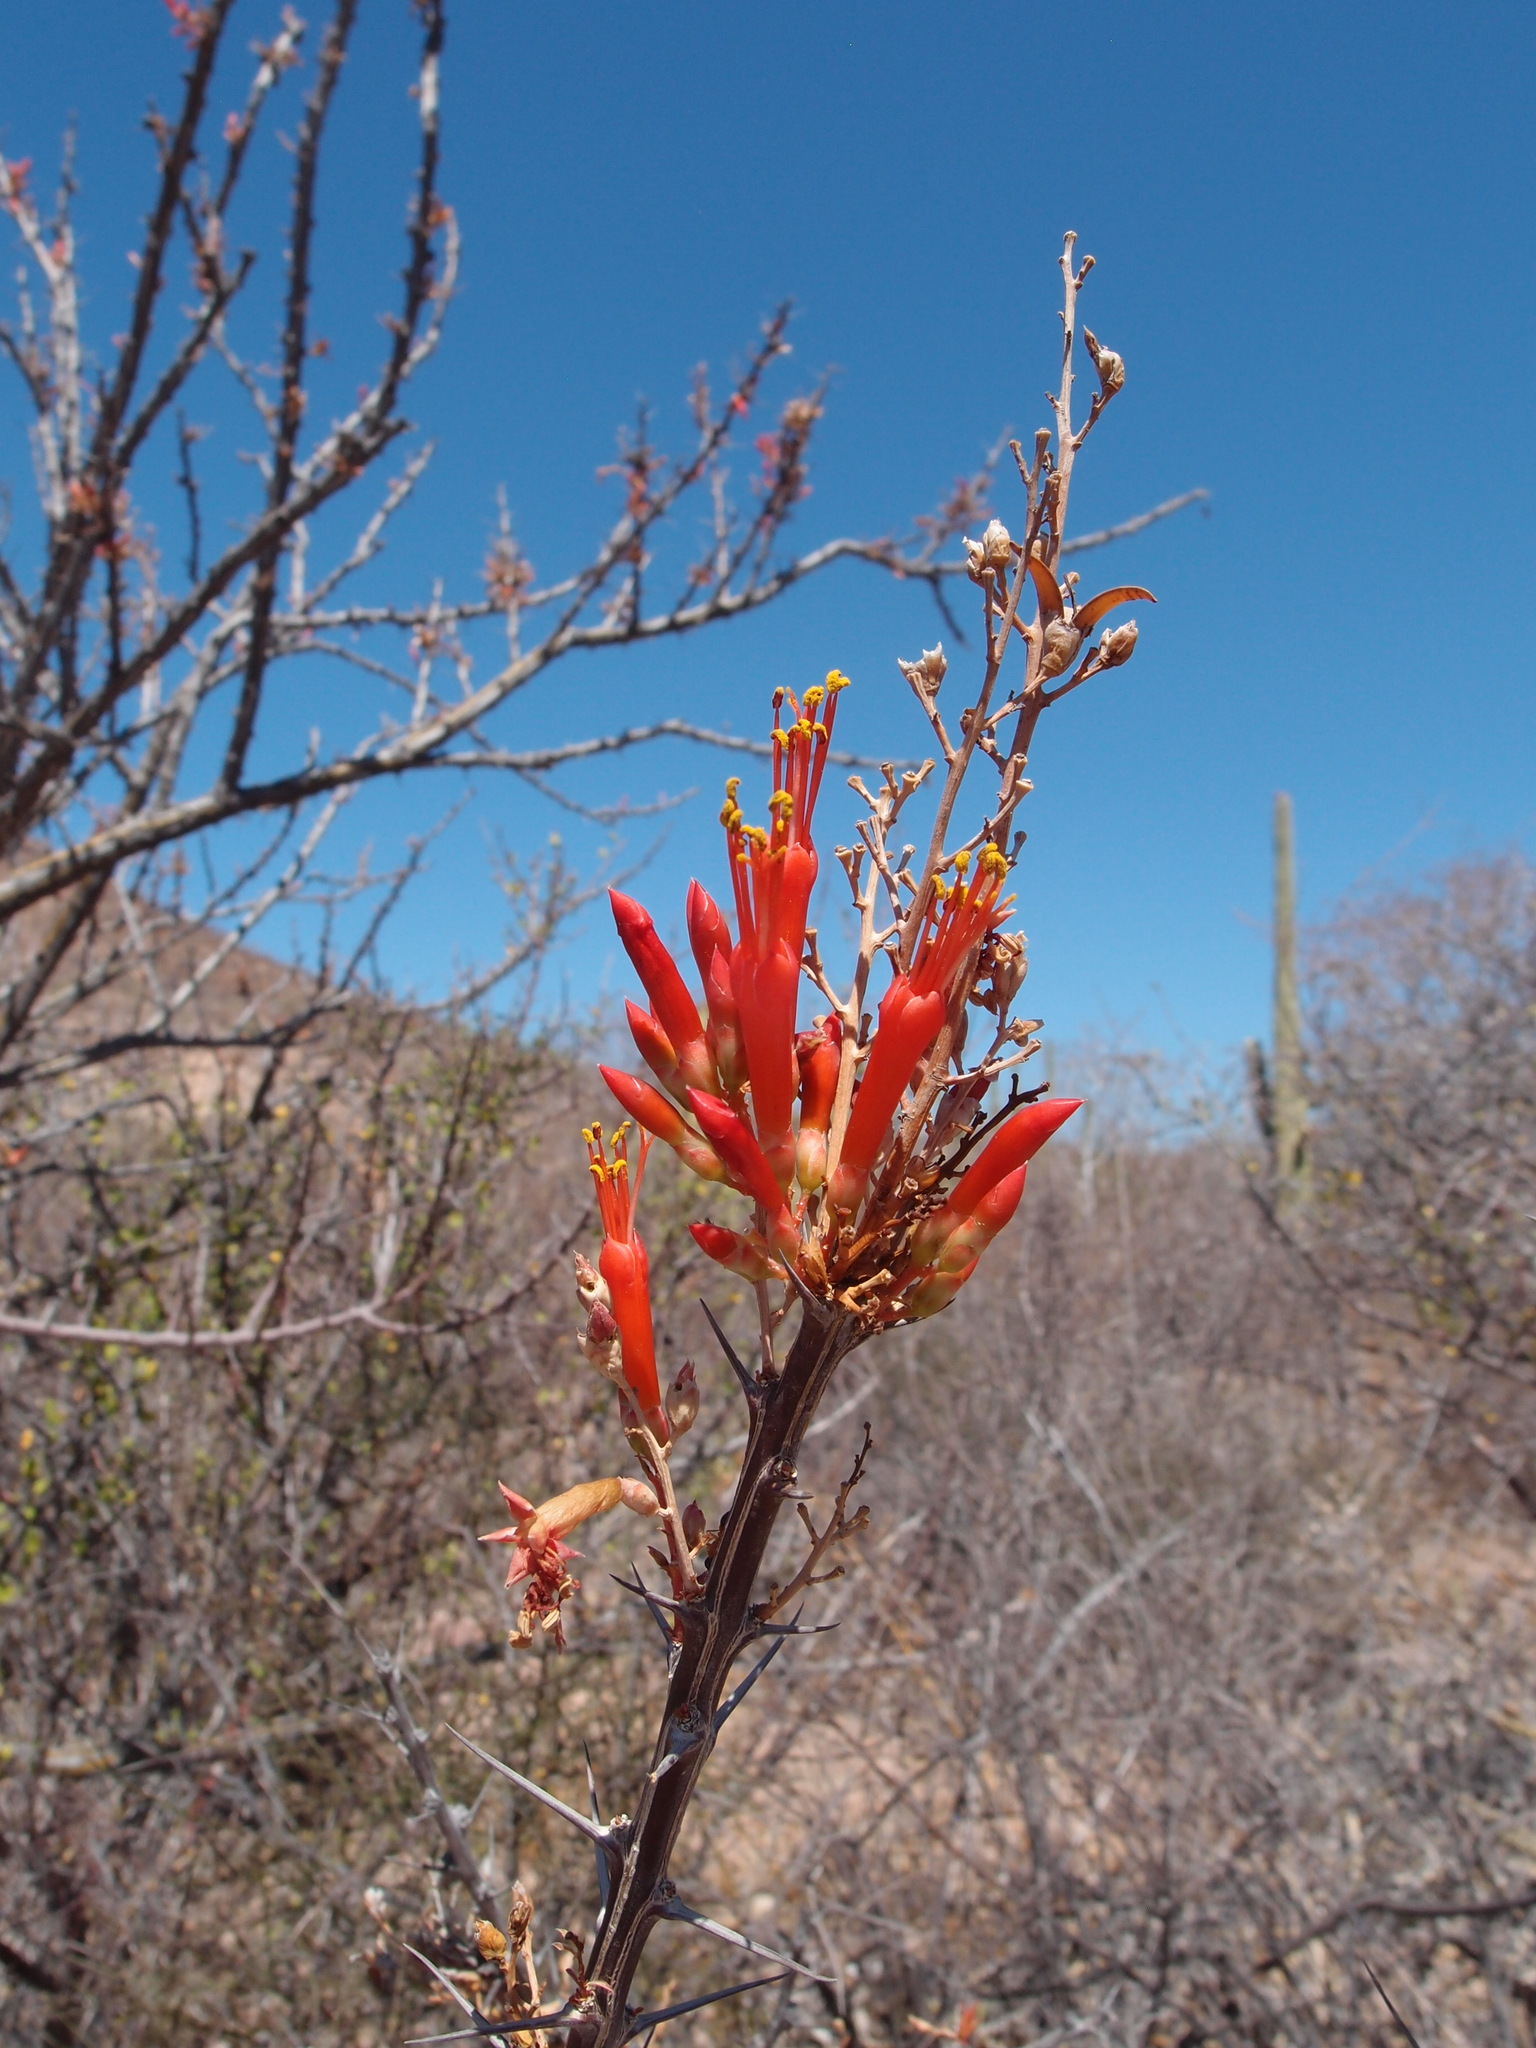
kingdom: Plantae
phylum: Tracheophyta
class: Magnoliopsida
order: Ericales
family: Fouquieriaceae
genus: Fouquieria
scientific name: Fouquieria diguetii
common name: Adam's tree
